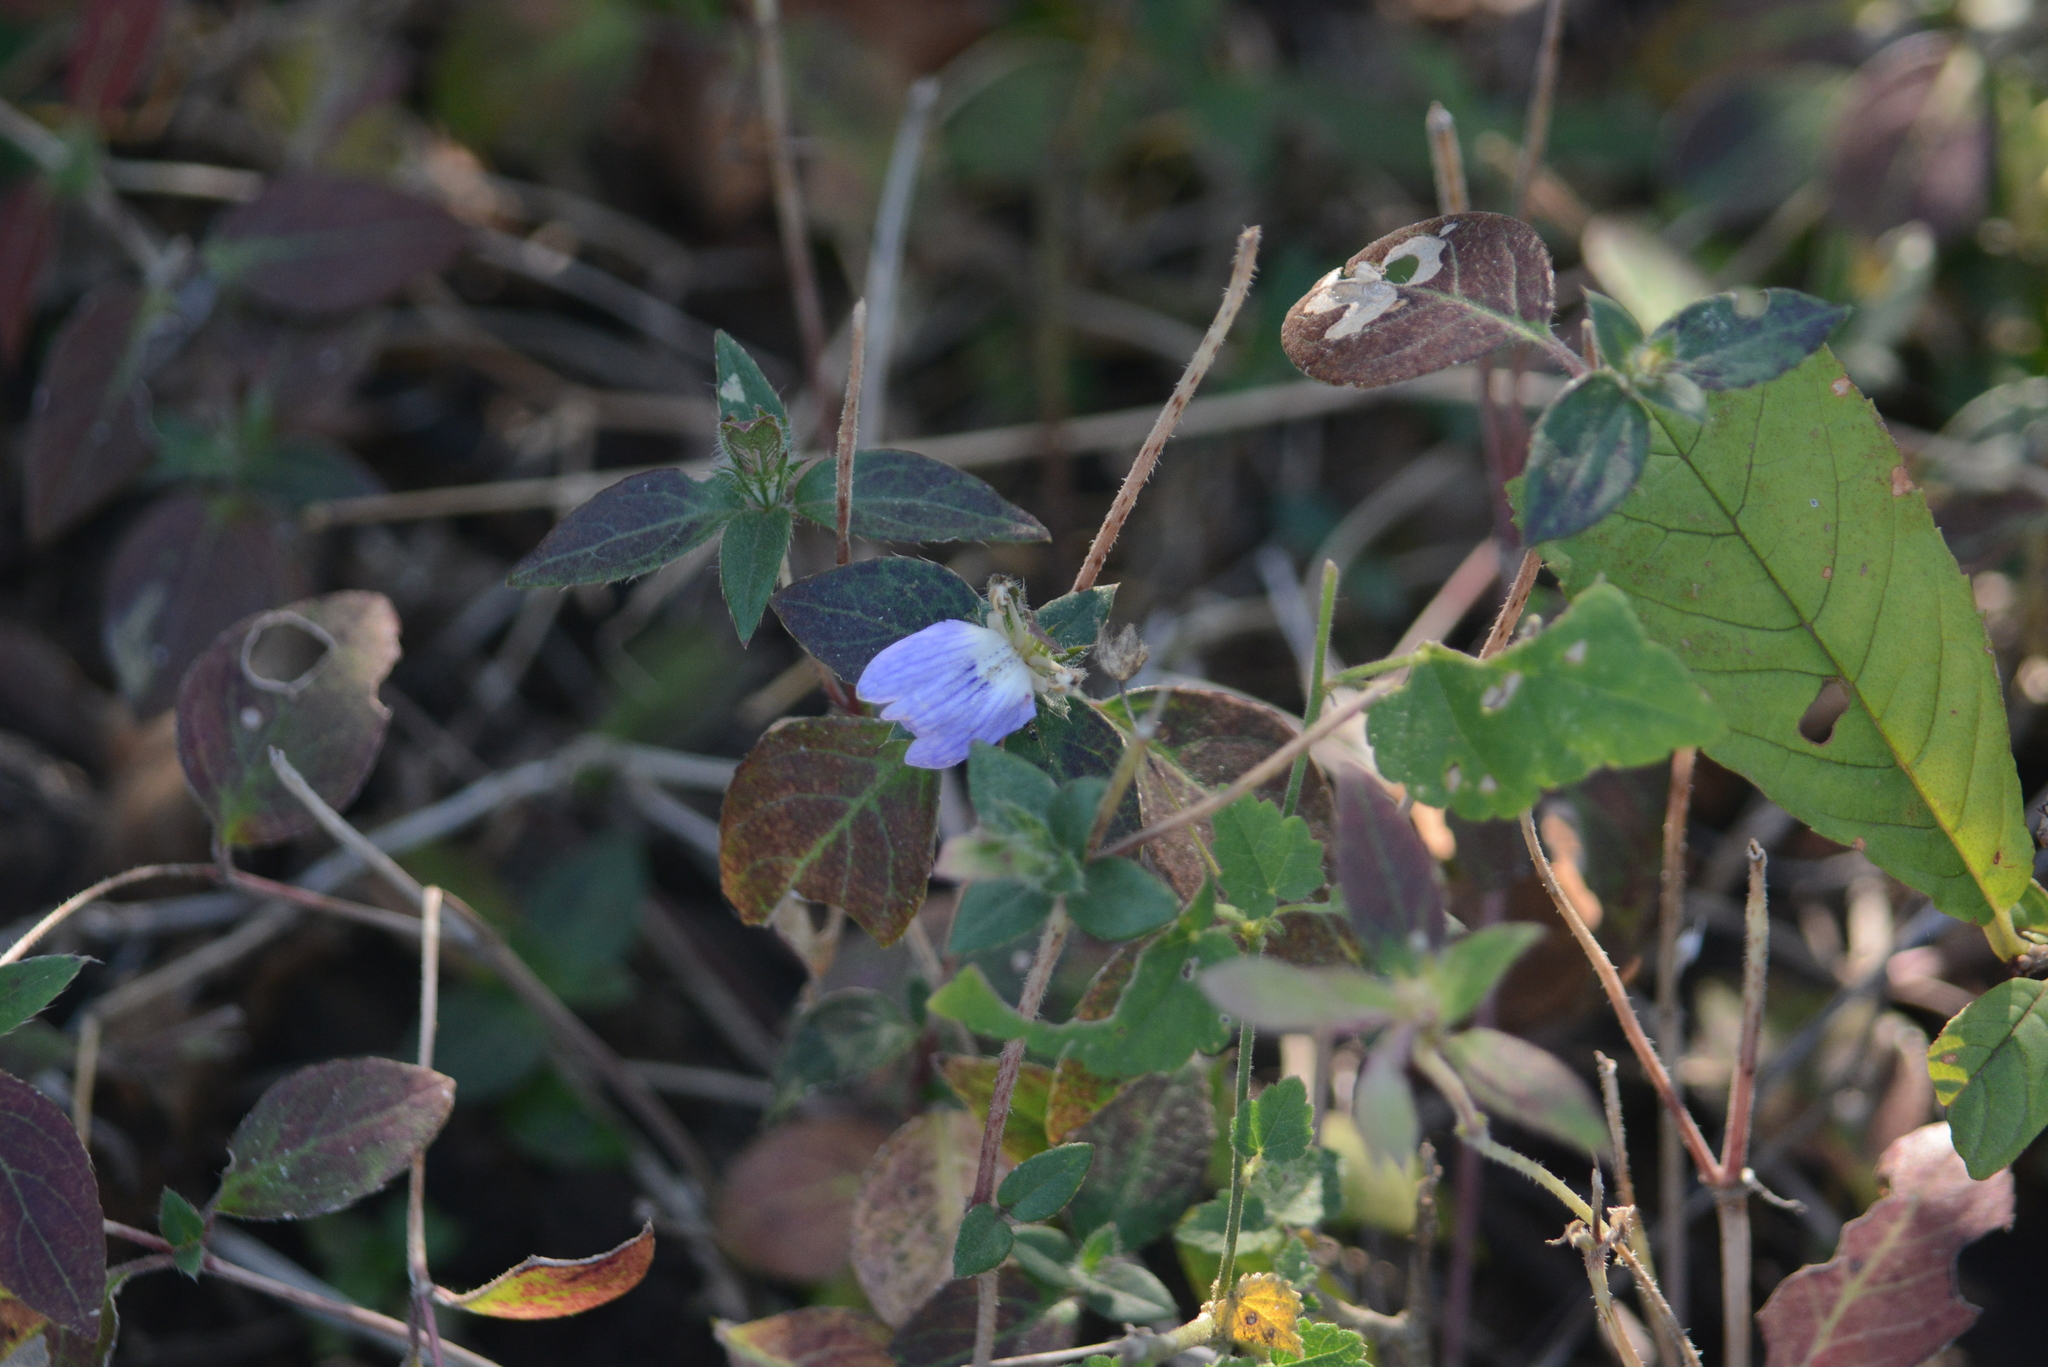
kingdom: Plantae
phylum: Tracheophyta
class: Magnoliopsida
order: Lamiales
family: Acanthaceae
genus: Cynarospermum
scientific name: Cynarospermum asperrimum
